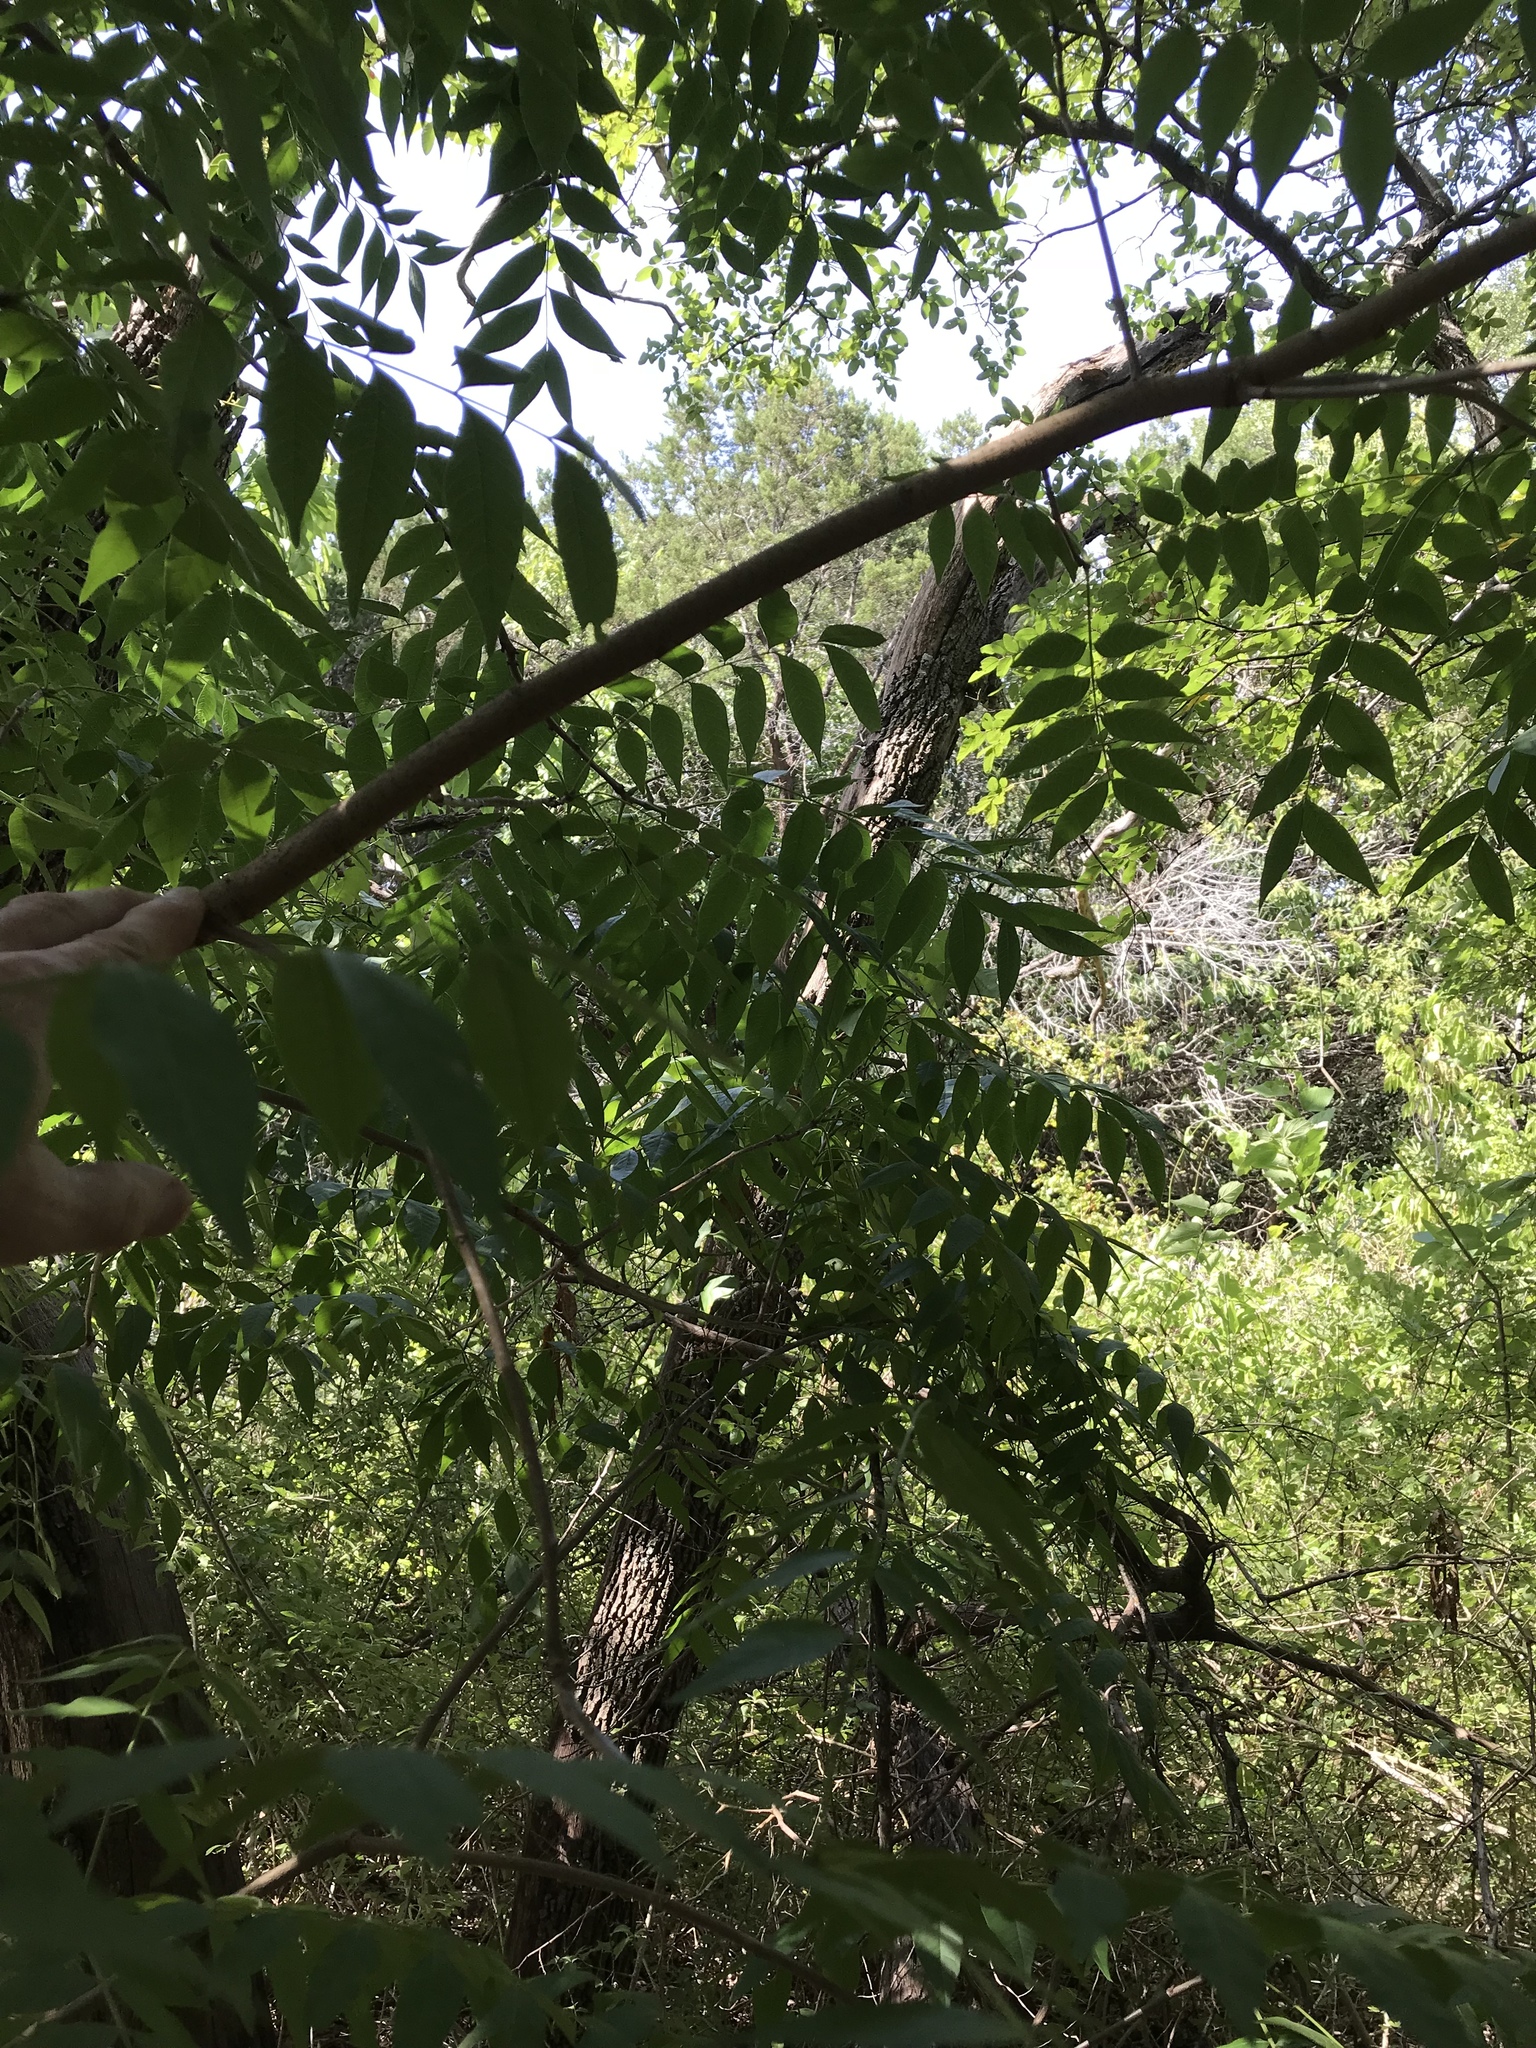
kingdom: Plantae
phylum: Tracheophyta
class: Magnoliopsida
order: Sapindales
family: Anacardiaceae
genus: Pistacia
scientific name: Pistacia chinensis
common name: Chinese pistache
